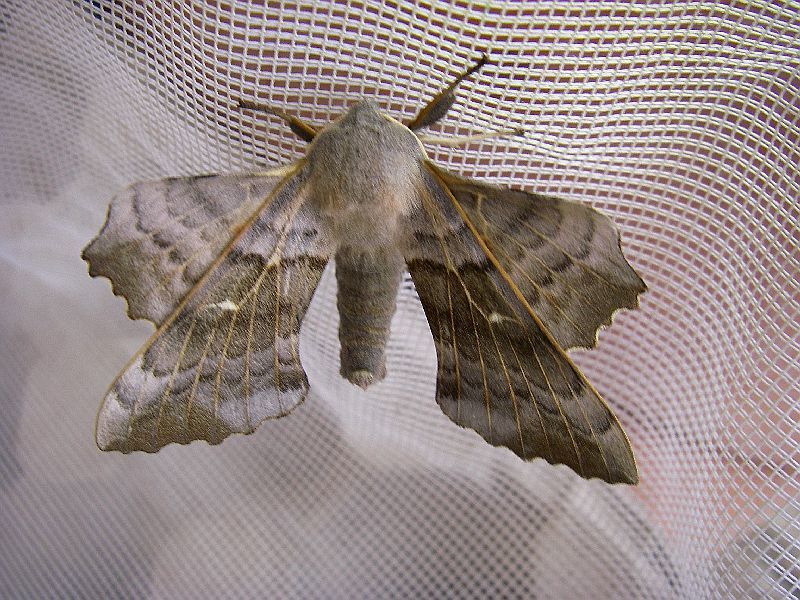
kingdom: Animalia
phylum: Arthropoda
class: Insecta
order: Lepidoptera
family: Sphingidae
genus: Laothoe
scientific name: Laothoe populi
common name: Poplar hawk-moth
